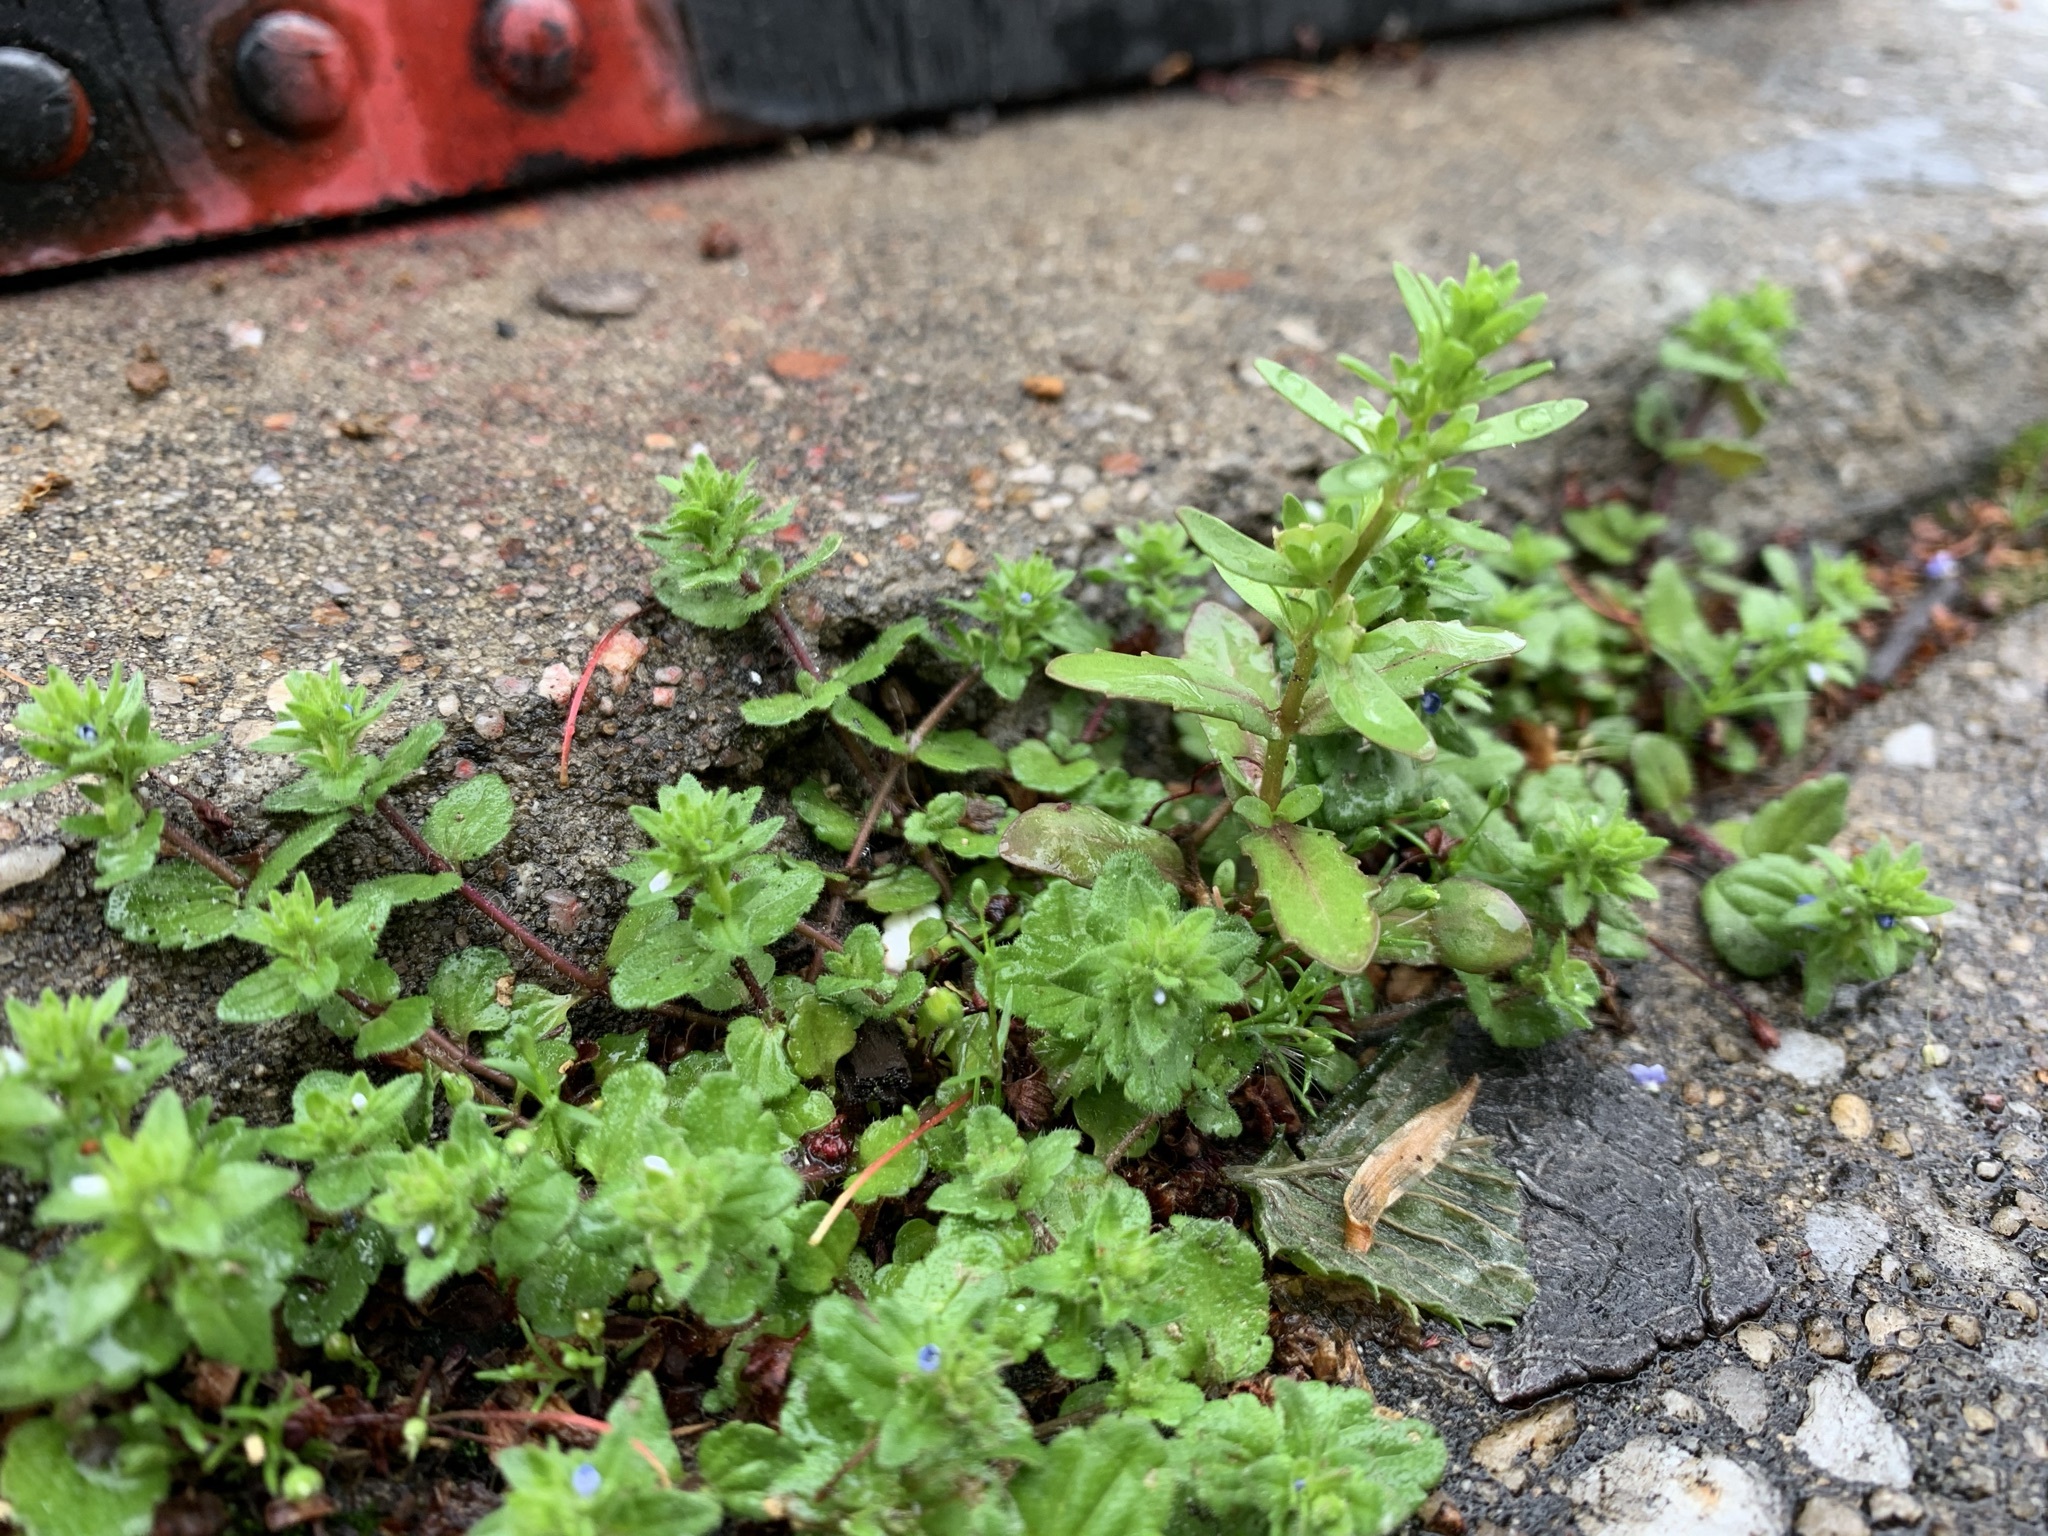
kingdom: Plantae
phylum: Tracheophyta
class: Magnoliopsida
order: Lamiales
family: Plantaginaceae
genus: Veronica
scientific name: Veronica arvensis
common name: Corn speedwell
